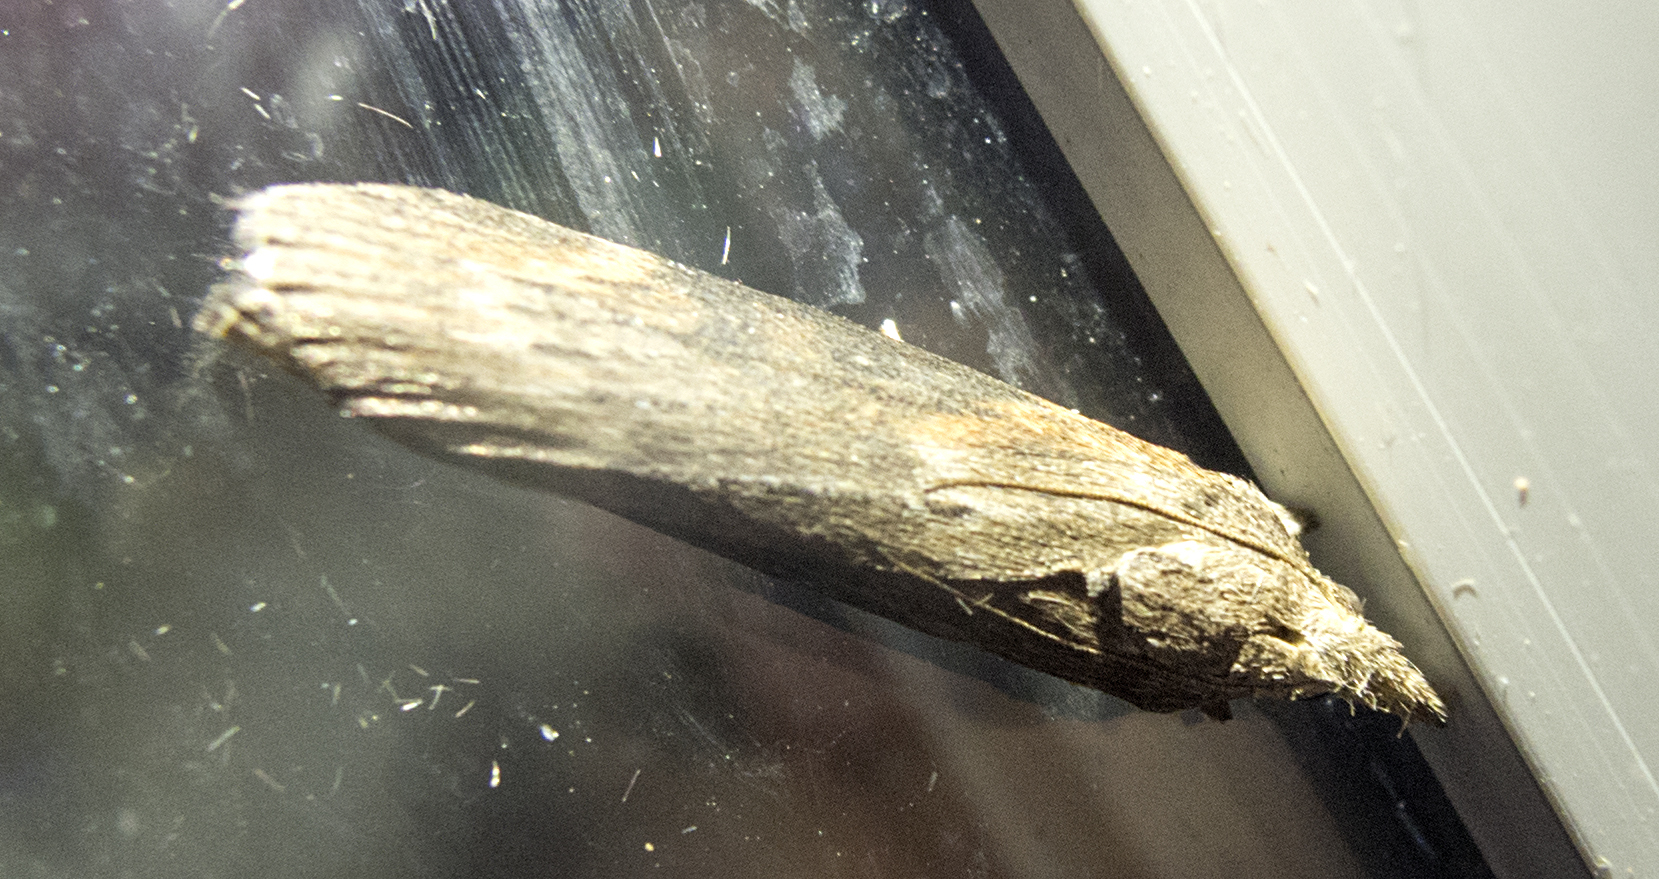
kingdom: Animalia
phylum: Arthropoda
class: Insecta
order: Lepidoptera
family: Pyralidae
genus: Lamoria
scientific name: Lamoria anella
